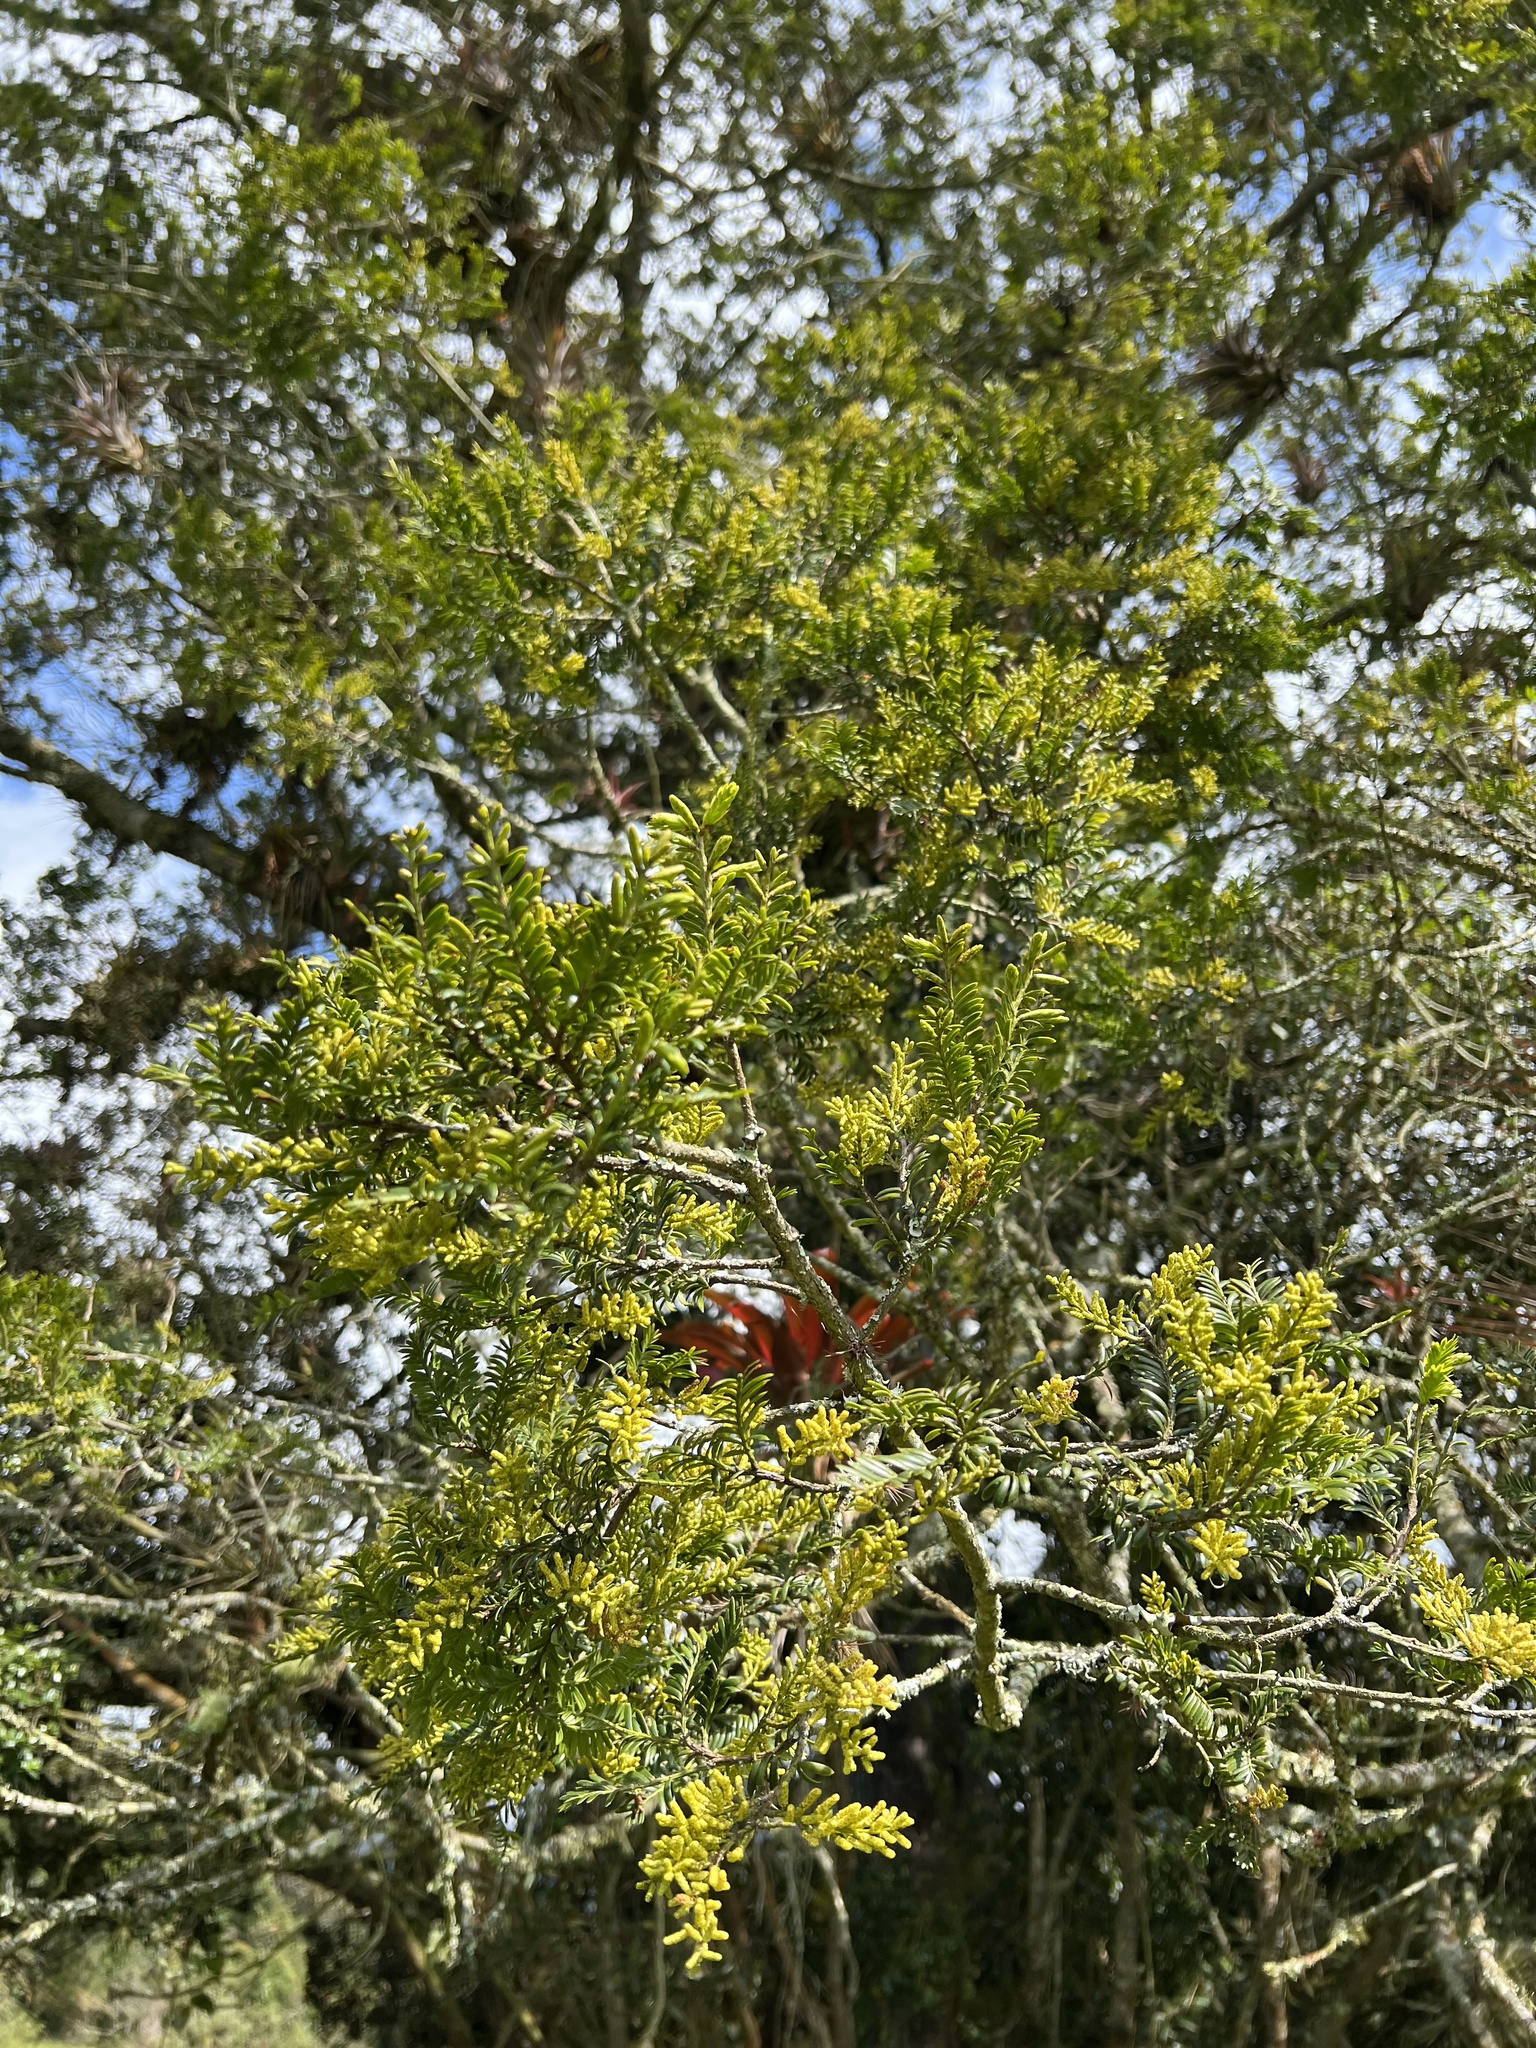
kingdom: Plantae
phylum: Tracheophyta
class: Pinopsida
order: Pinales
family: Podocarpaceae
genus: Prumnopitys
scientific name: Prumnopitys montana
